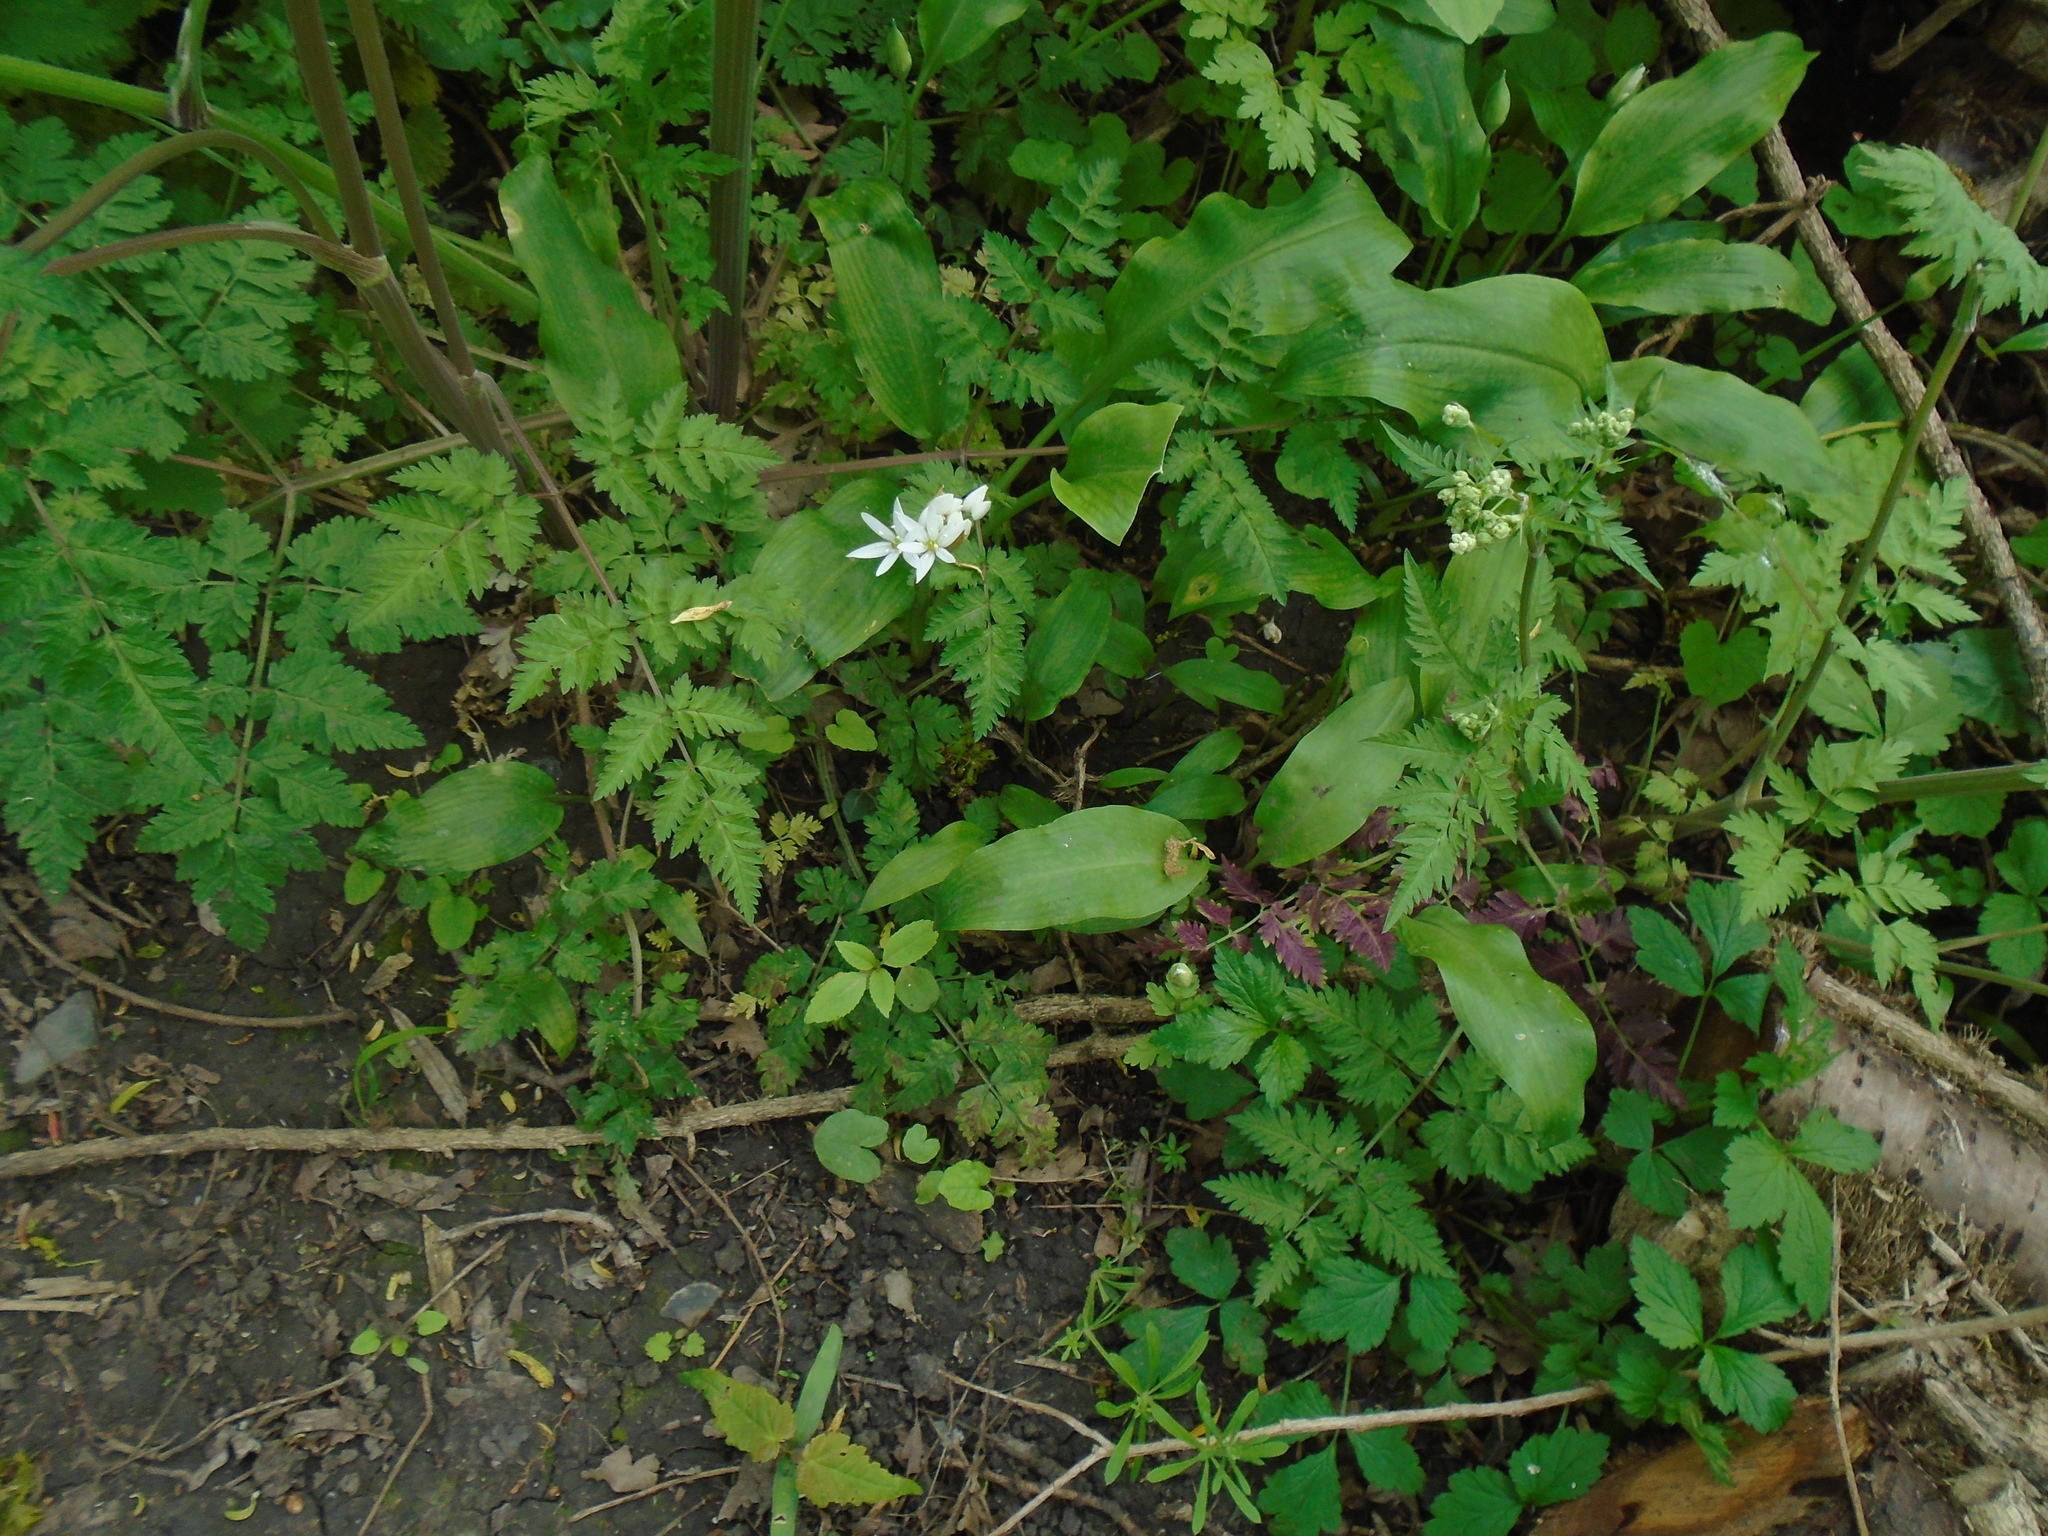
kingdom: Plantae
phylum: Tracheophyta
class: Liliopsida
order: Asparagales
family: Amaryllidaceae
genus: Allium
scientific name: Allium ursinum
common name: Ramsons
